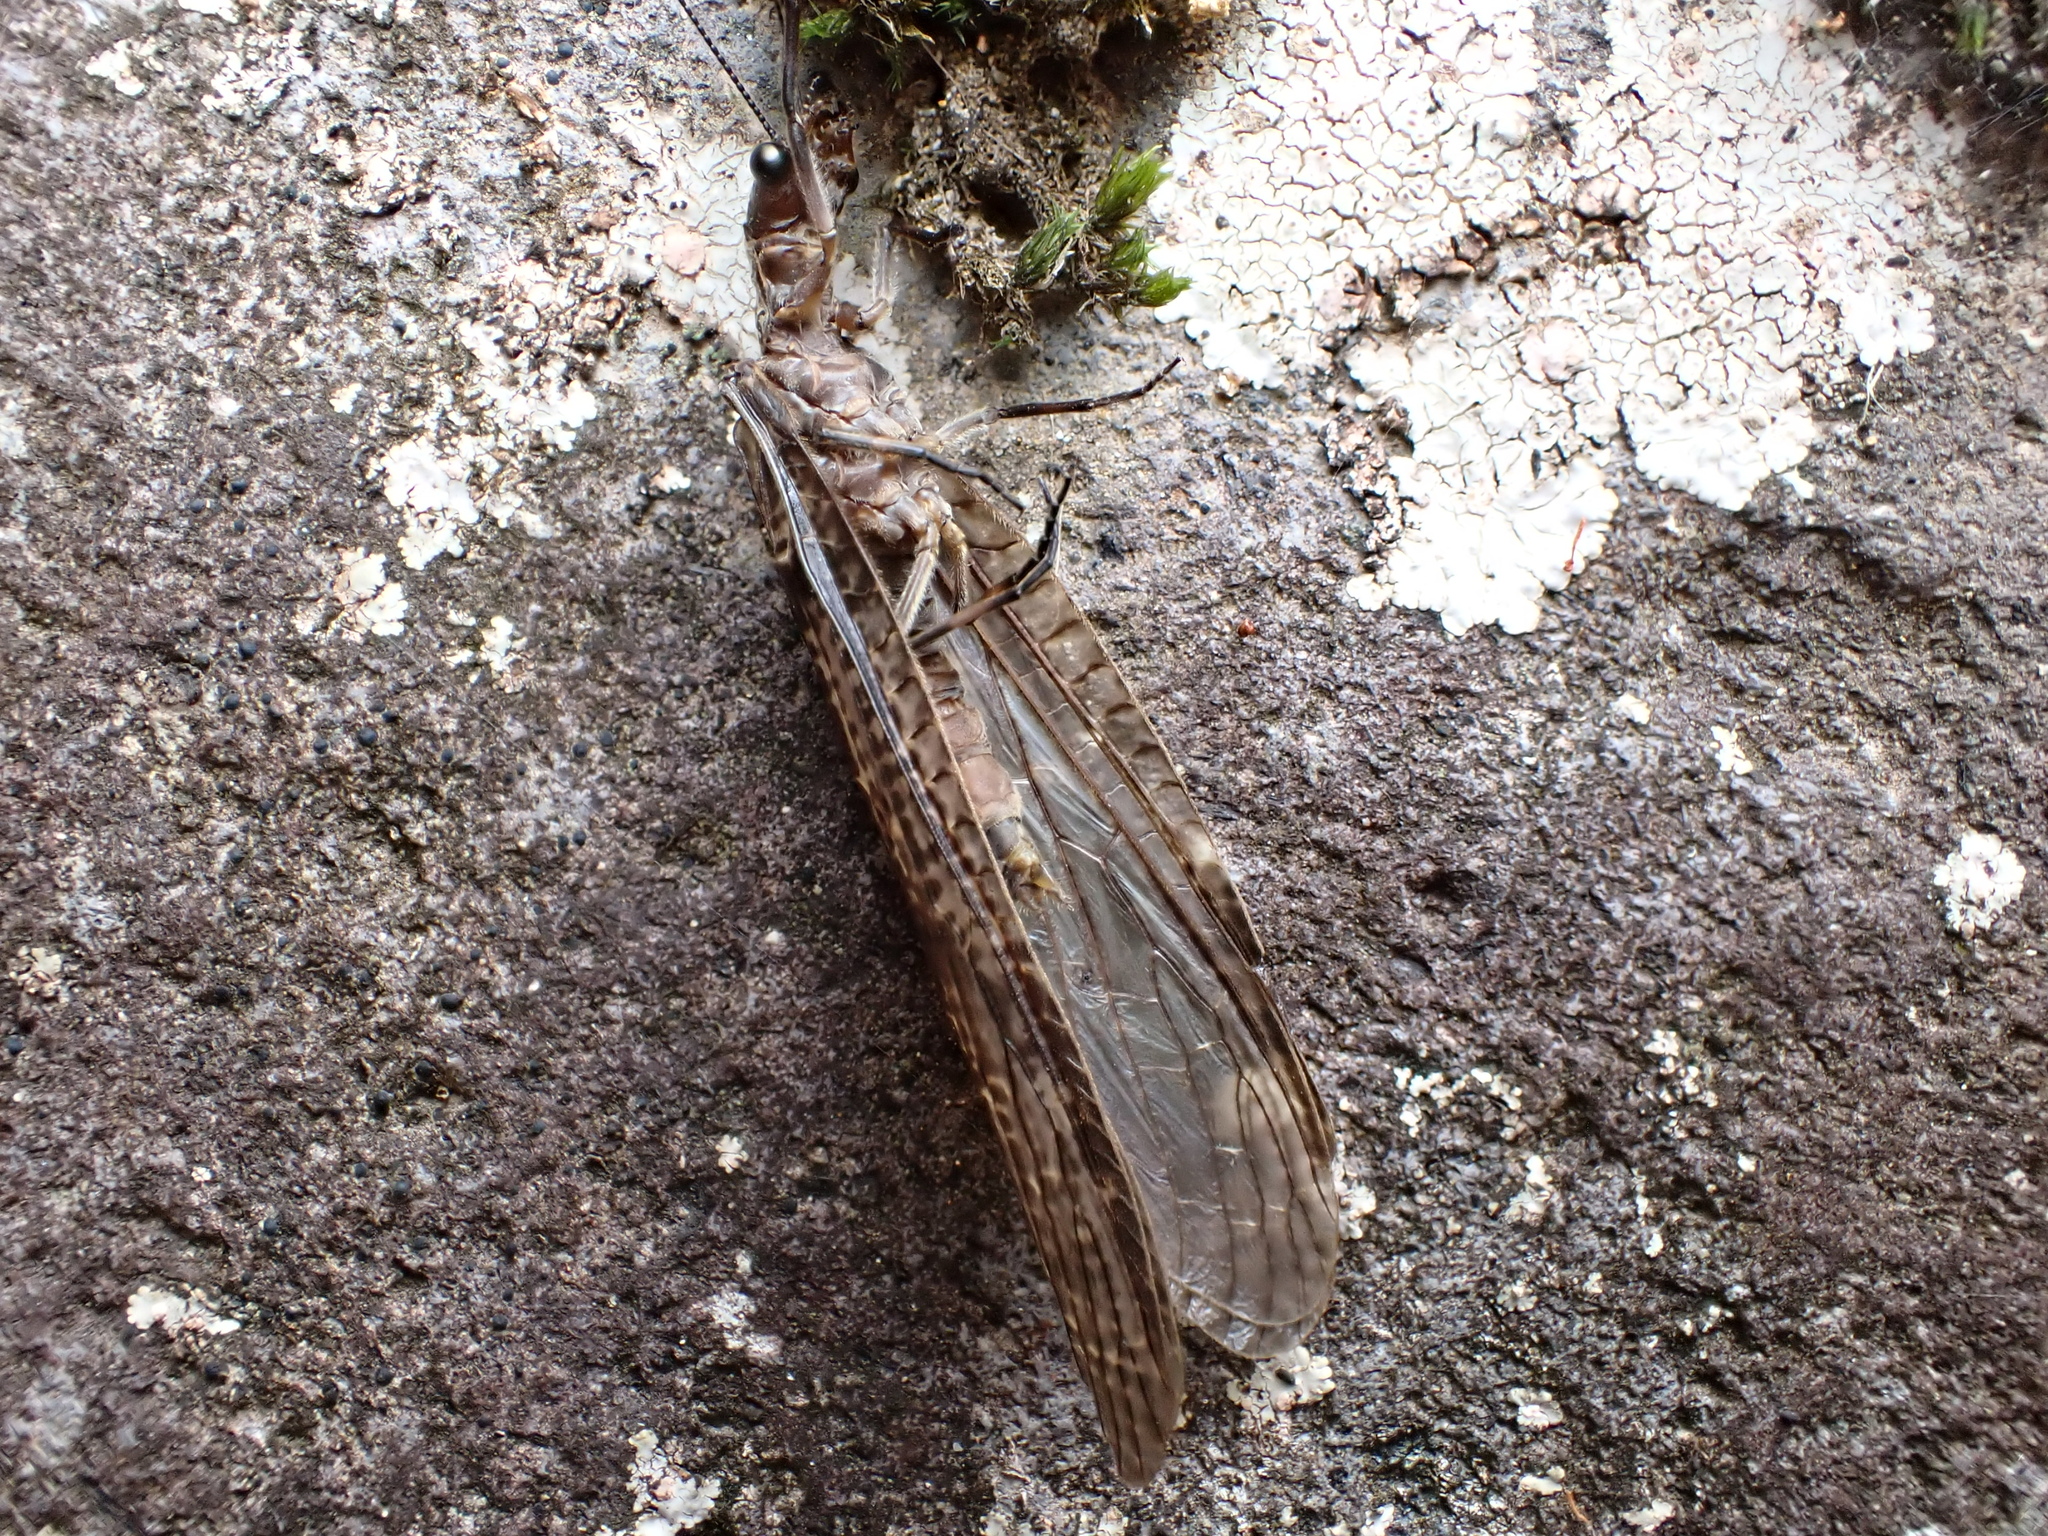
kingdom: Animalia
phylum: Arthropoda
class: Insecta
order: Megaloptera
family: Corydalidae
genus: Archichauliodes
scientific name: Archichauliodes diversus
